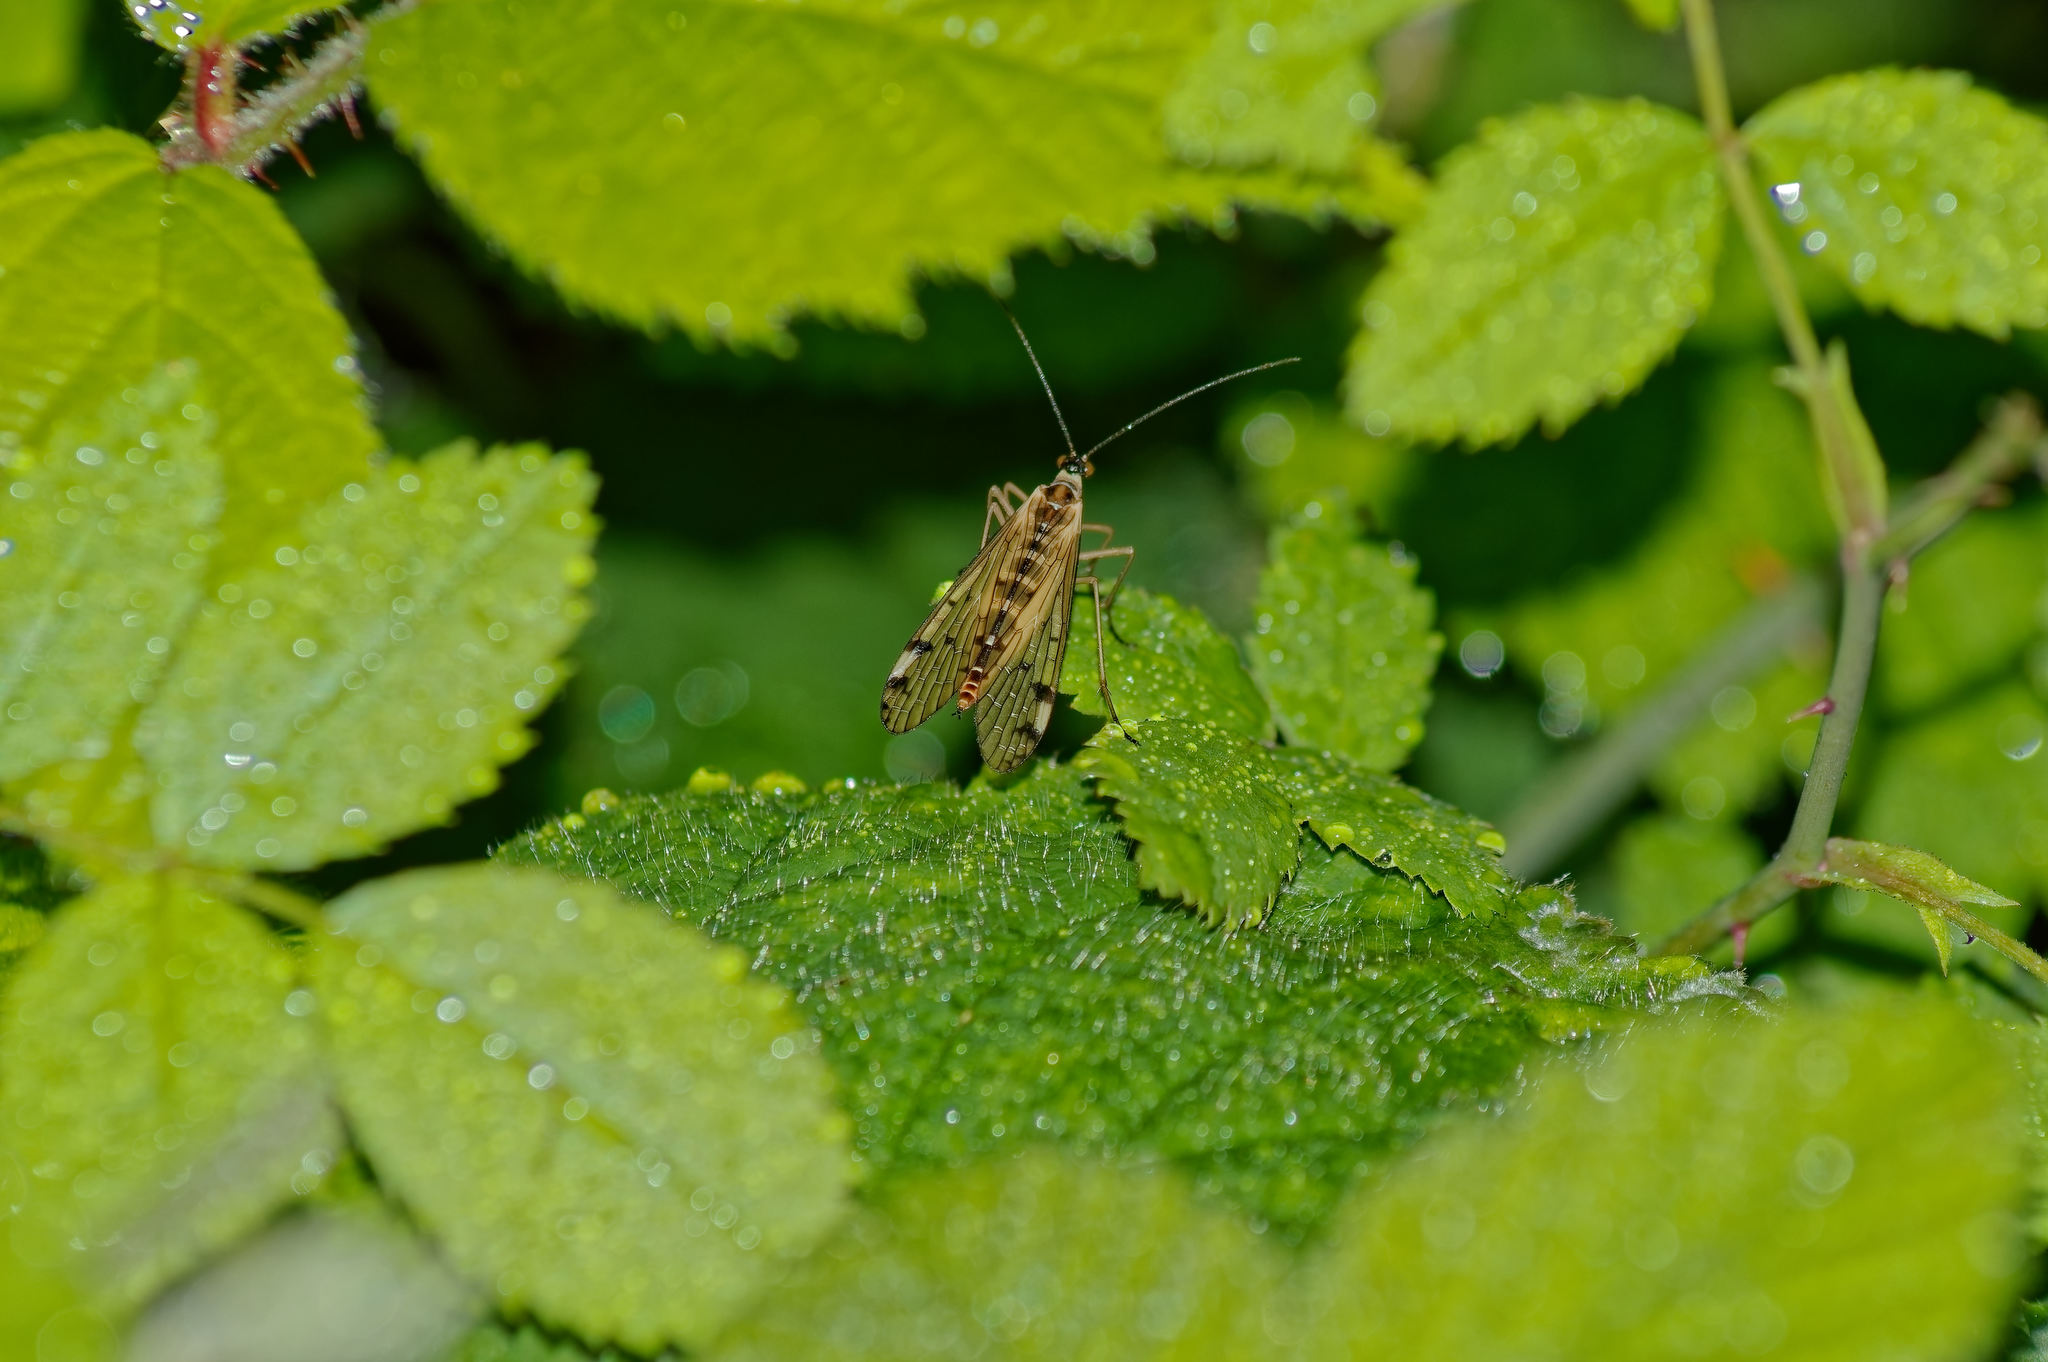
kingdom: Animalia
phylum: Arthropoda
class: Insecta
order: Mecoptera
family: Panorpidae
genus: Panorpa
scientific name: Panorpa alpina
